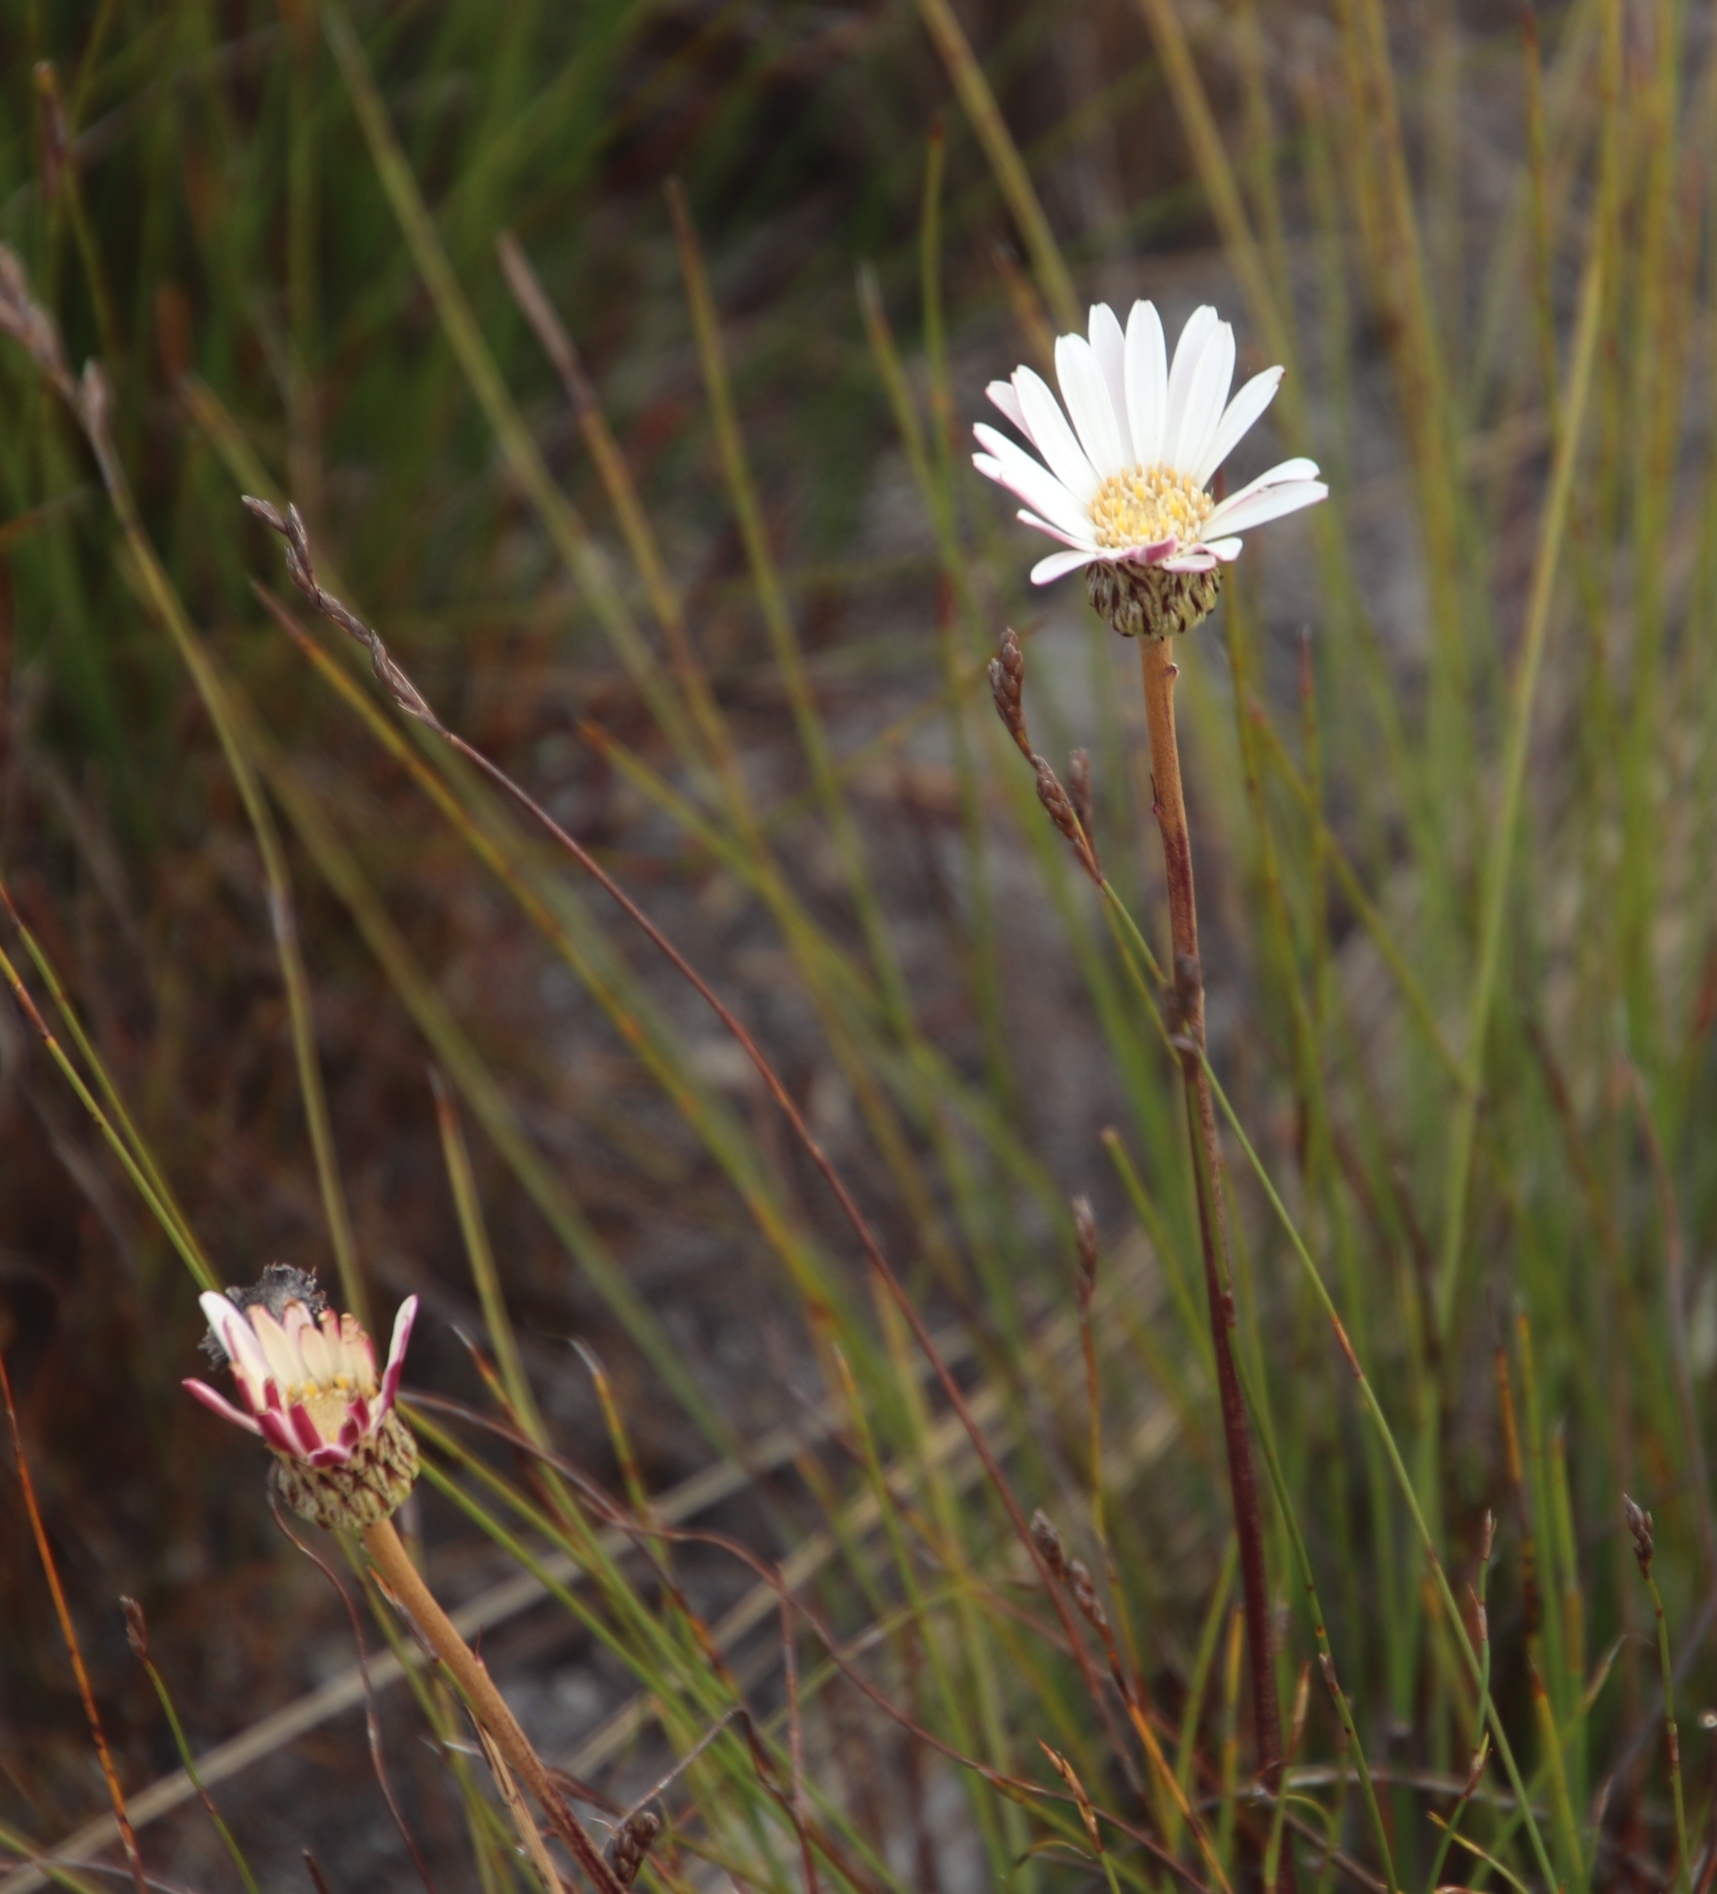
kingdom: Plantae
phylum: Tracheophyta
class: Magnoliopsida
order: Asterales
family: Asteraceae
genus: Gerbera
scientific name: Gerbera tomentosa
